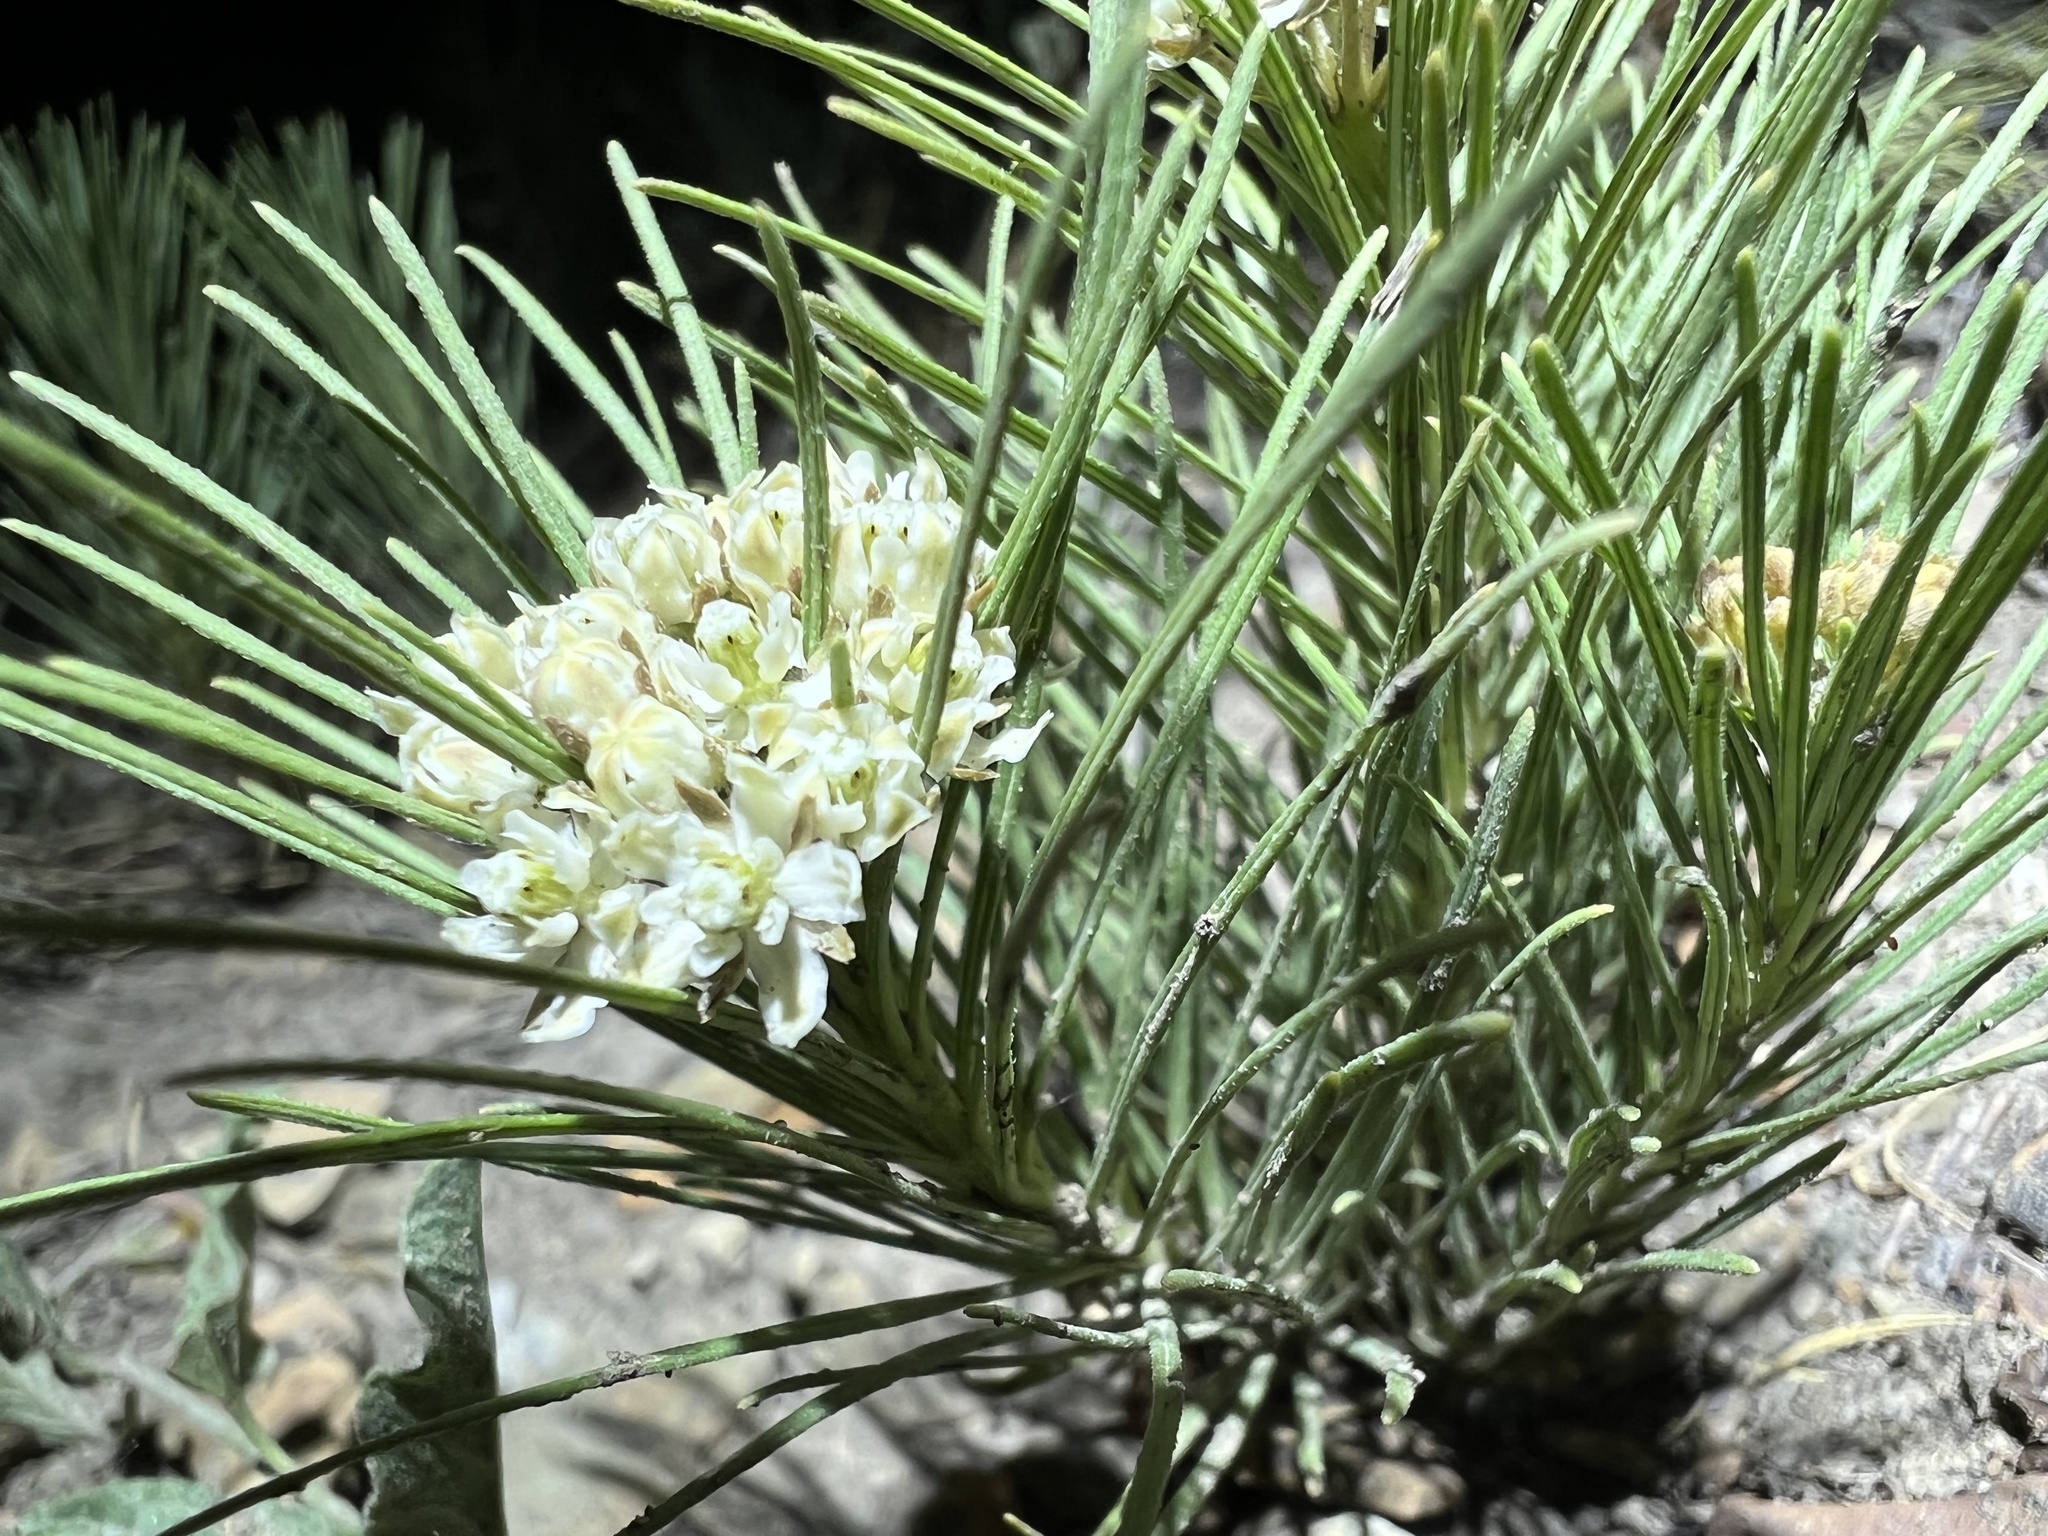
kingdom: Plantae
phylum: Tracheophyta
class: Magnoliopsida
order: Gentianales
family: Apocynaceae
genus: Asclepias
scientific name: Asclepias pumila
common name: Dwarf milkweed
